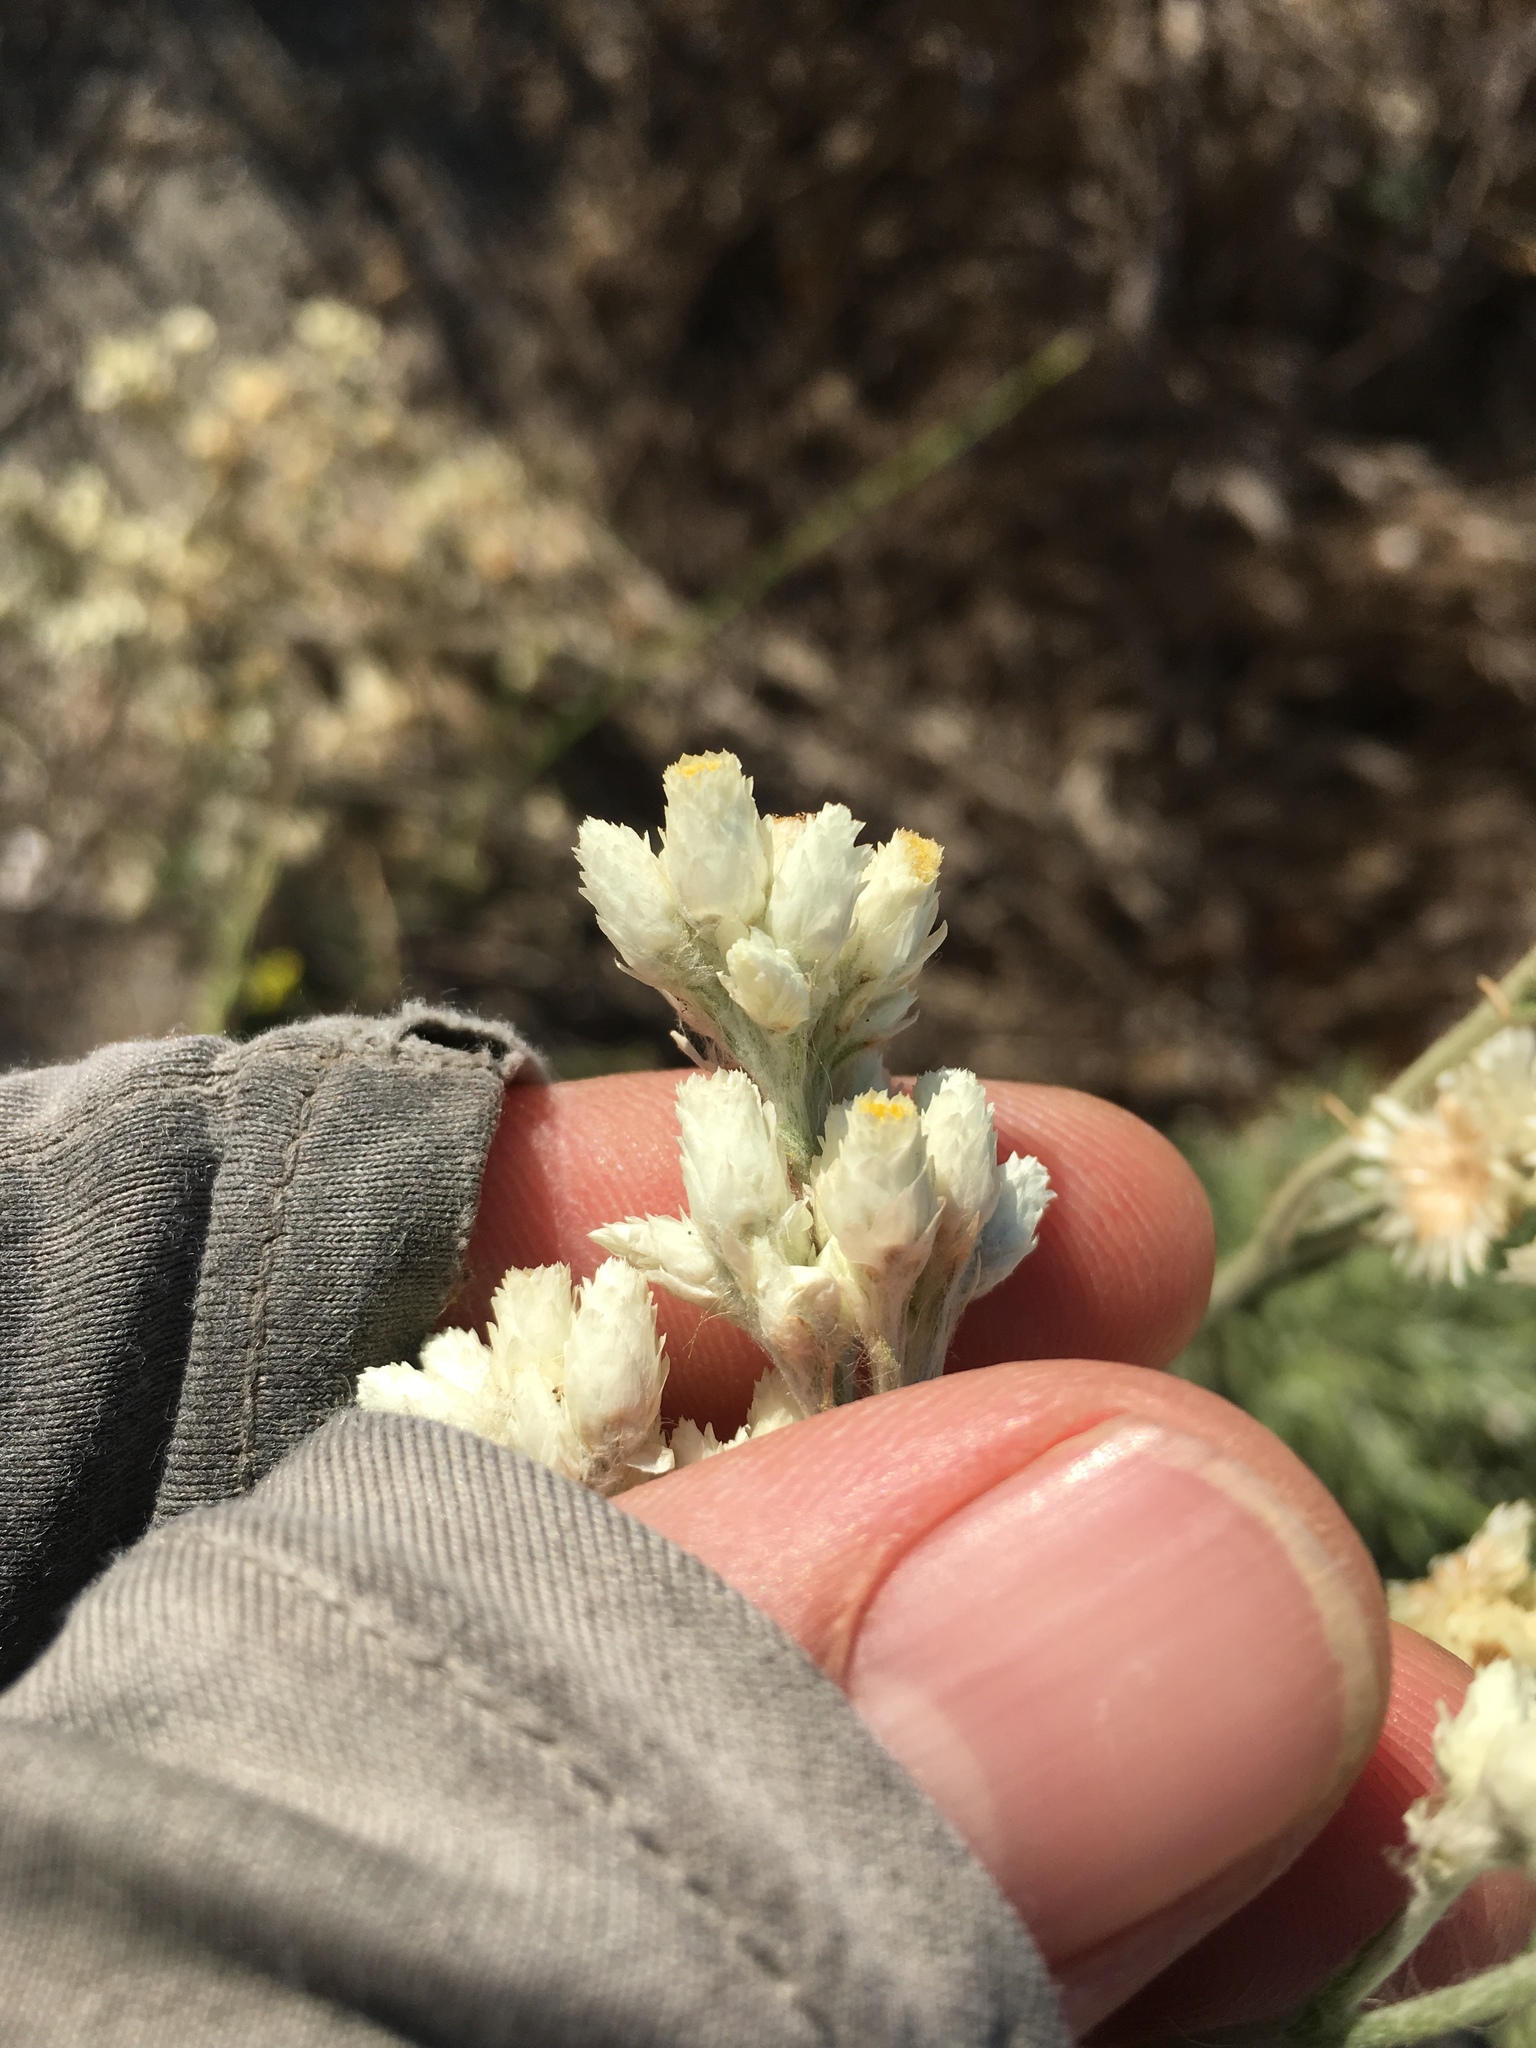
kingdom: Plantae
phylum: Tracheophyta
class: Magnoliopsida
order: Asterales
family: Asteraceae
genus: Pseudognaphalium
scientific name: Pseudognaphalium leucocephalum
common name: White cudweed
